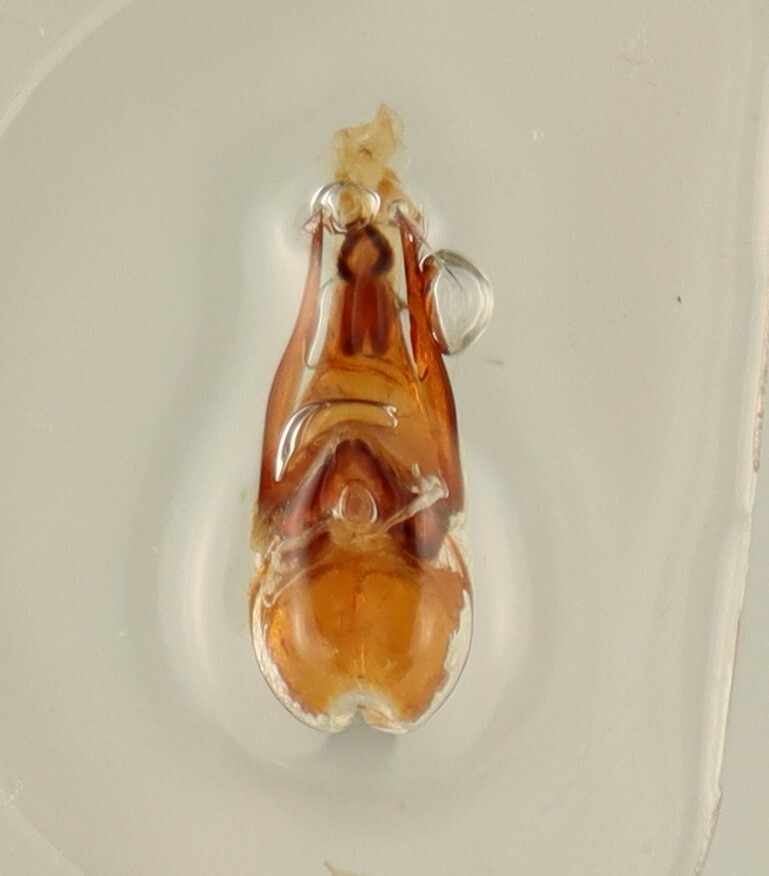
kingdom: Animalia
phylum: Arthropoda
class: Insecta
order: Coleoptera
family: Staphylinidae
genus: Lordithon
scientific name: Lordithon niger
